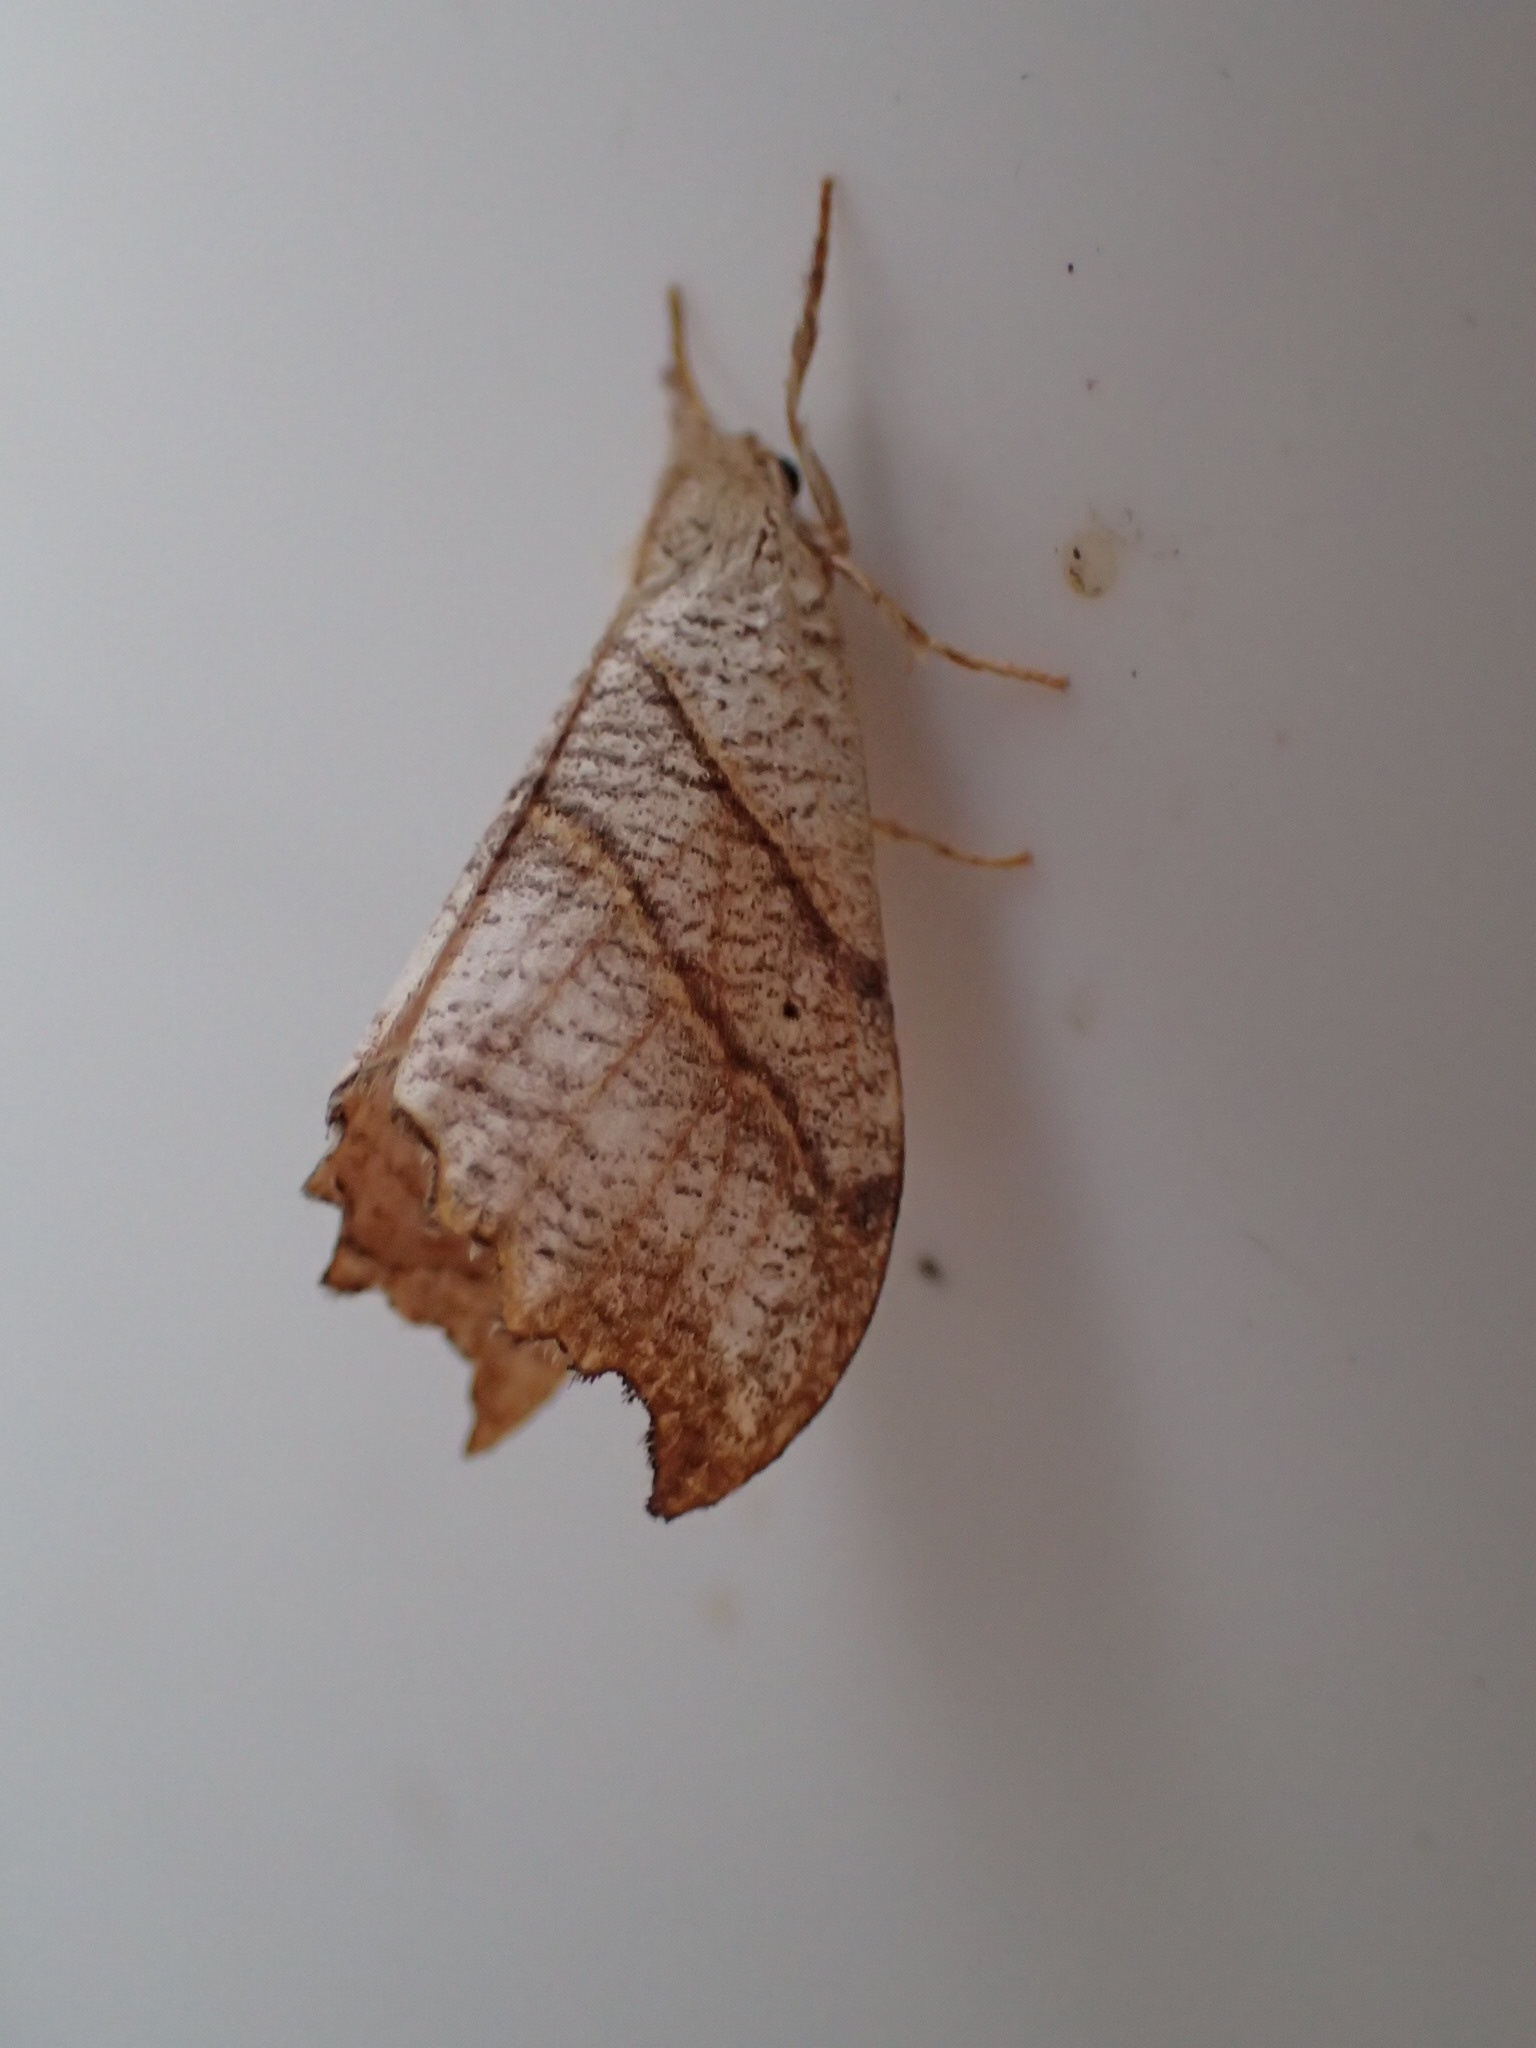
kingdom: Animalia
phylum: Arthropoda
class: Insecta
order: Lepidoptera
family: Drepanidae
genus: Falcaria
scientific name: Falcaria bilineata
